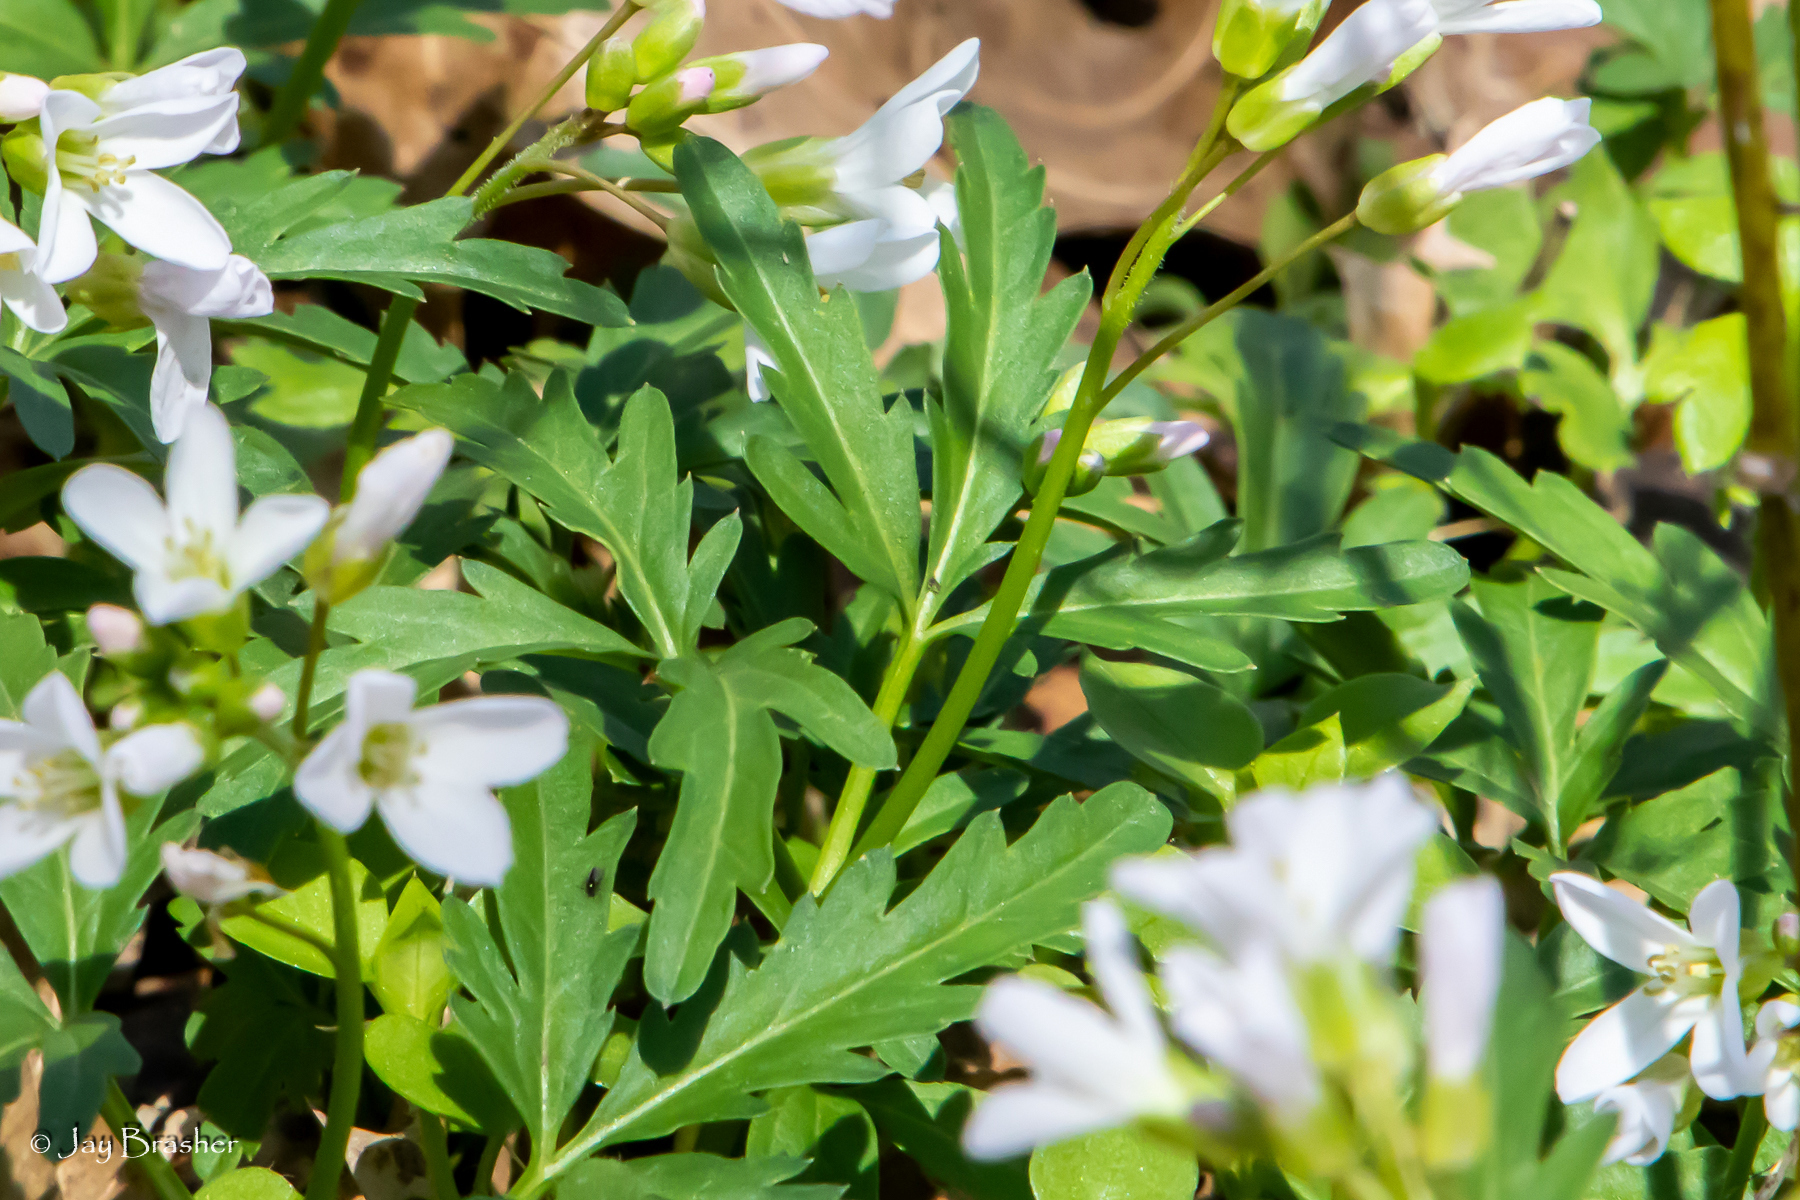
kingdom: Plantae
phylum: Tracheophyta
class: Magnoliopsida
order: Brassicales
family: Brassicaceae
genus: Cardamine
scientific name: Cardamine concatenata
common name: Cut-leaf toothcup
